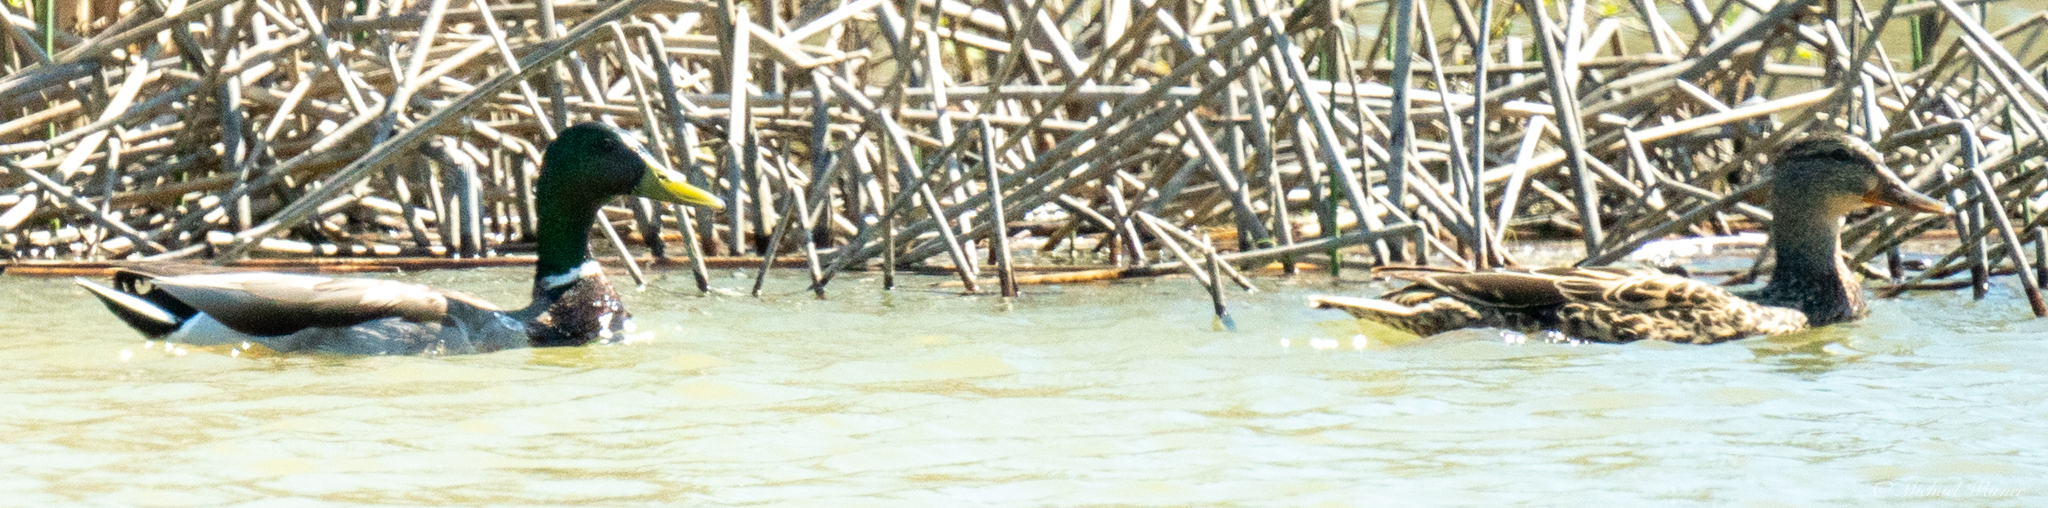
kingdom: Animalia
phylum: Chordata
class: Aves
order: Anseriformes
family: Anatidae
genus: Anas
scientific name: Anas platyrhynchos
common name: Mallard
